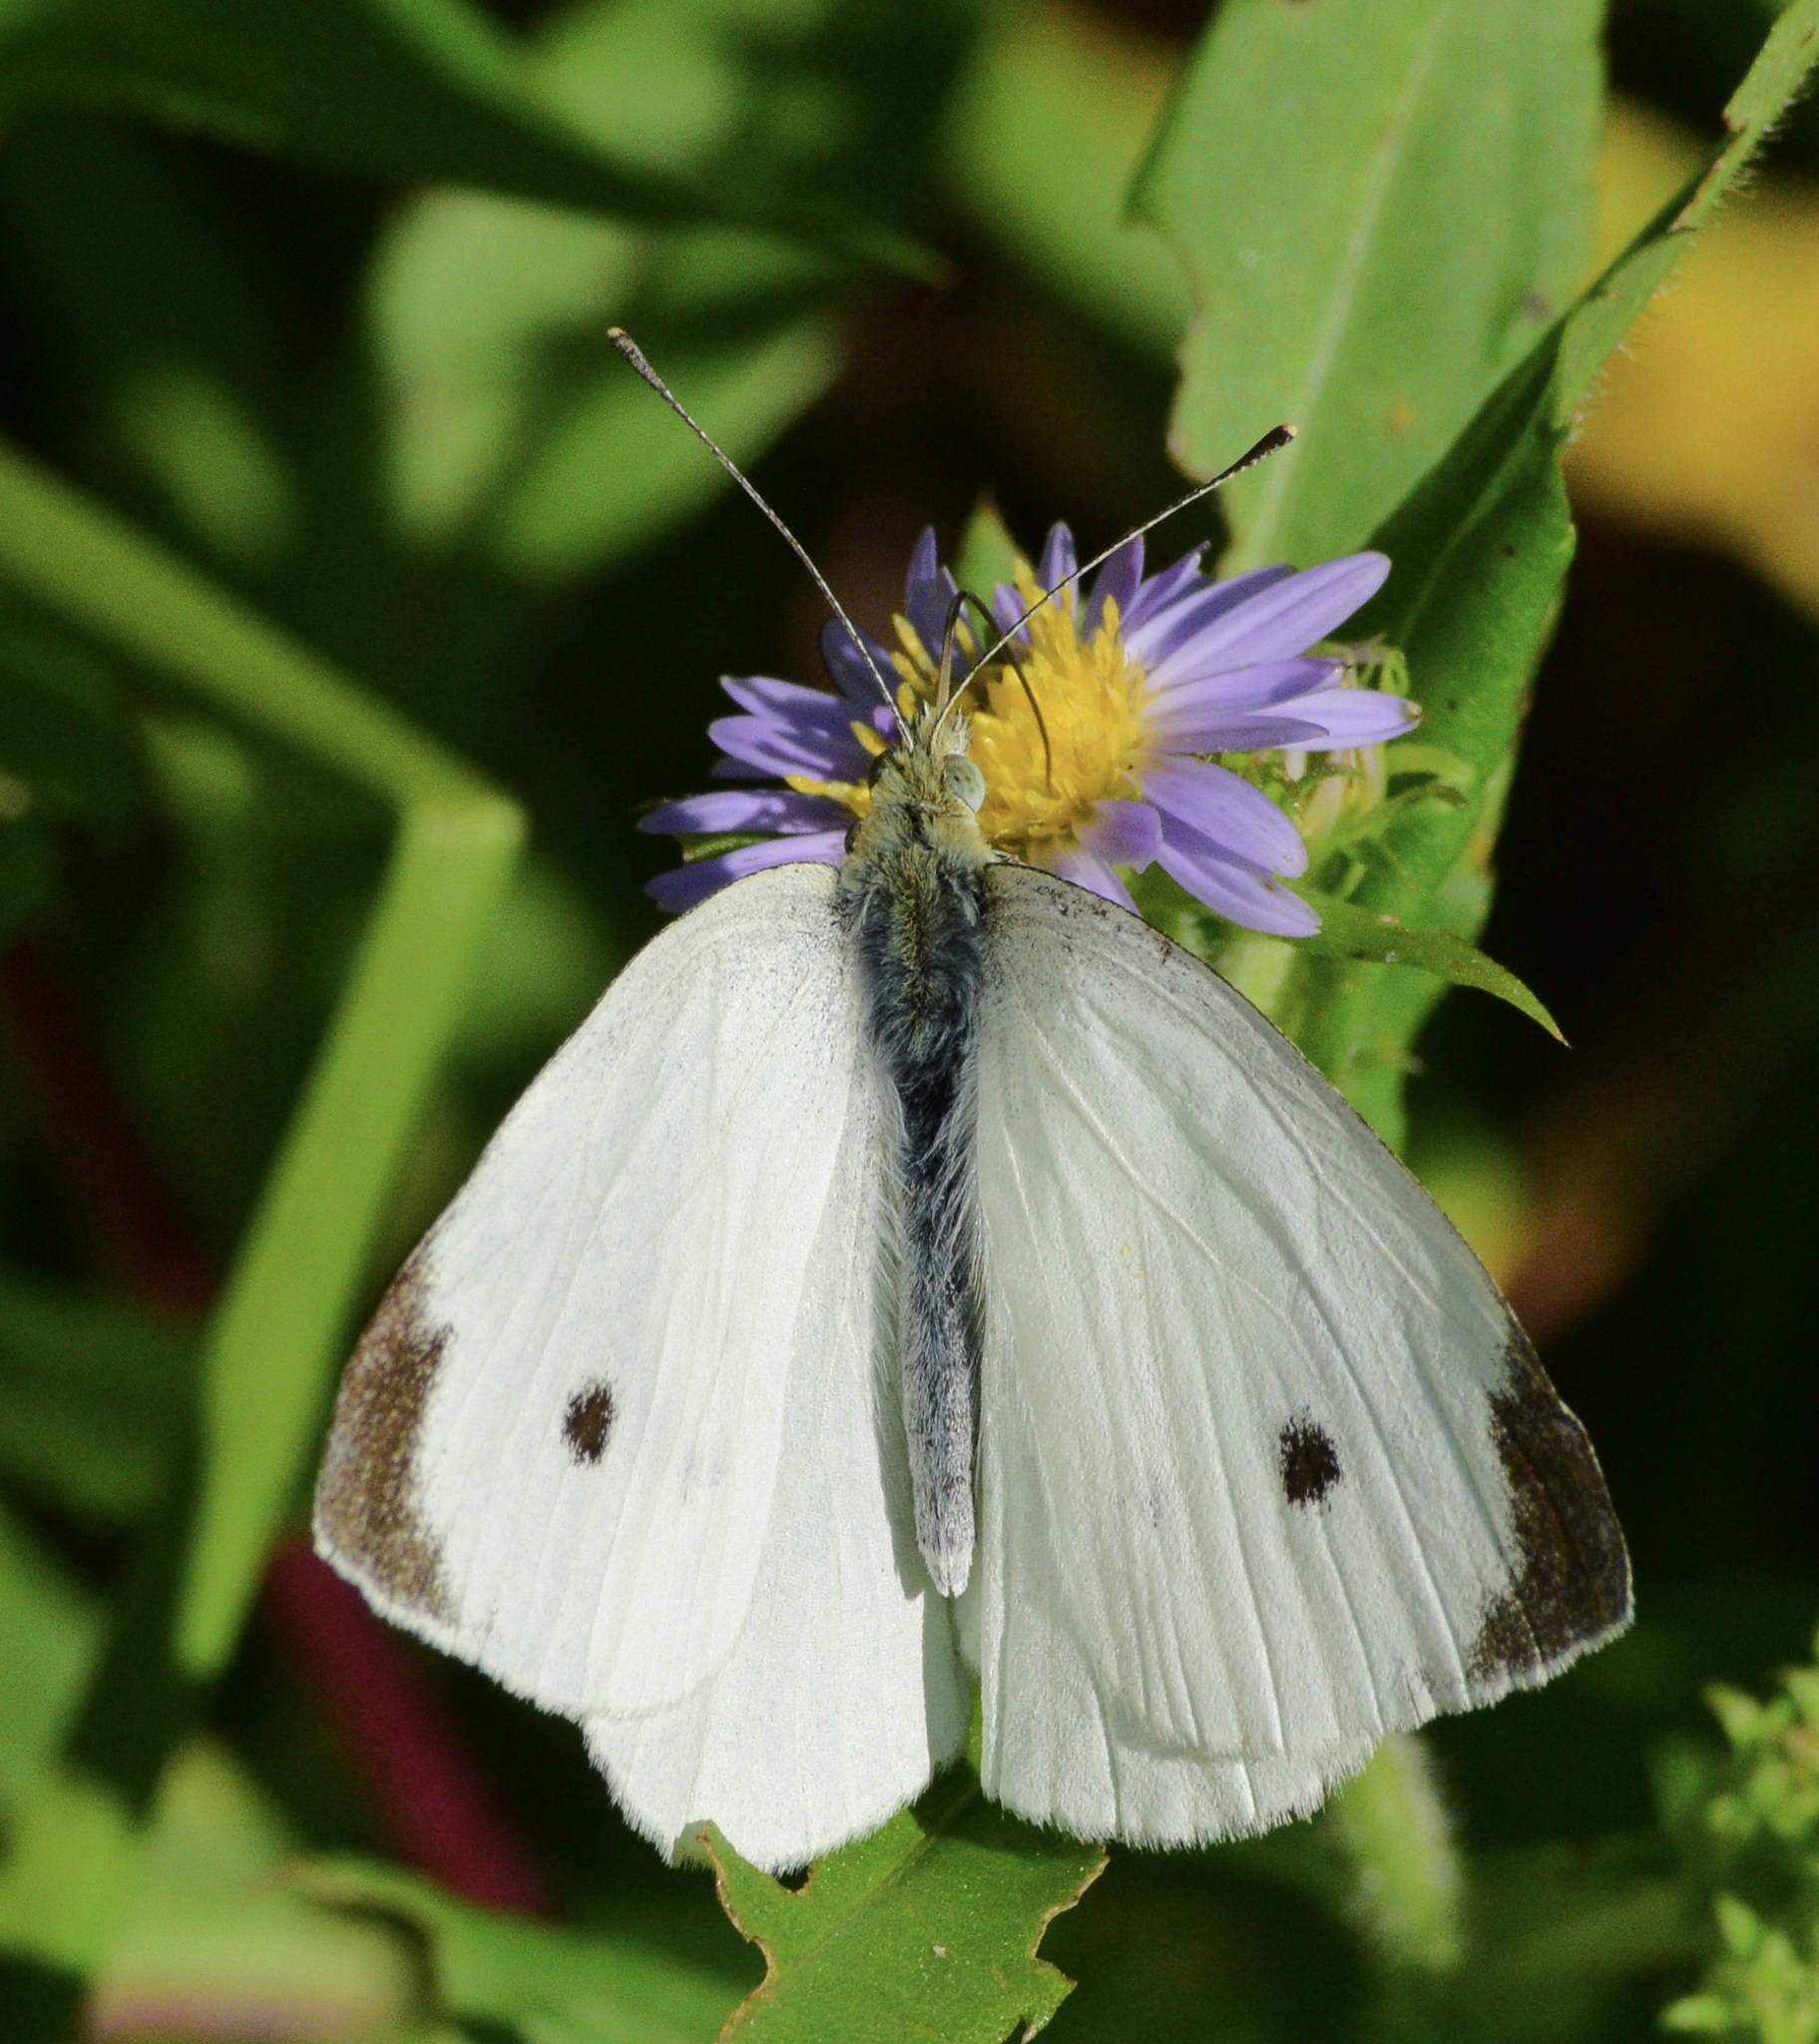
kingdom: Animalia
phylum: Arthropoda
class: Insecta
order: Lepidoptera
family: Pieridae
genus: Pieris
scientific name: Pieris rapae
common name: Small white
